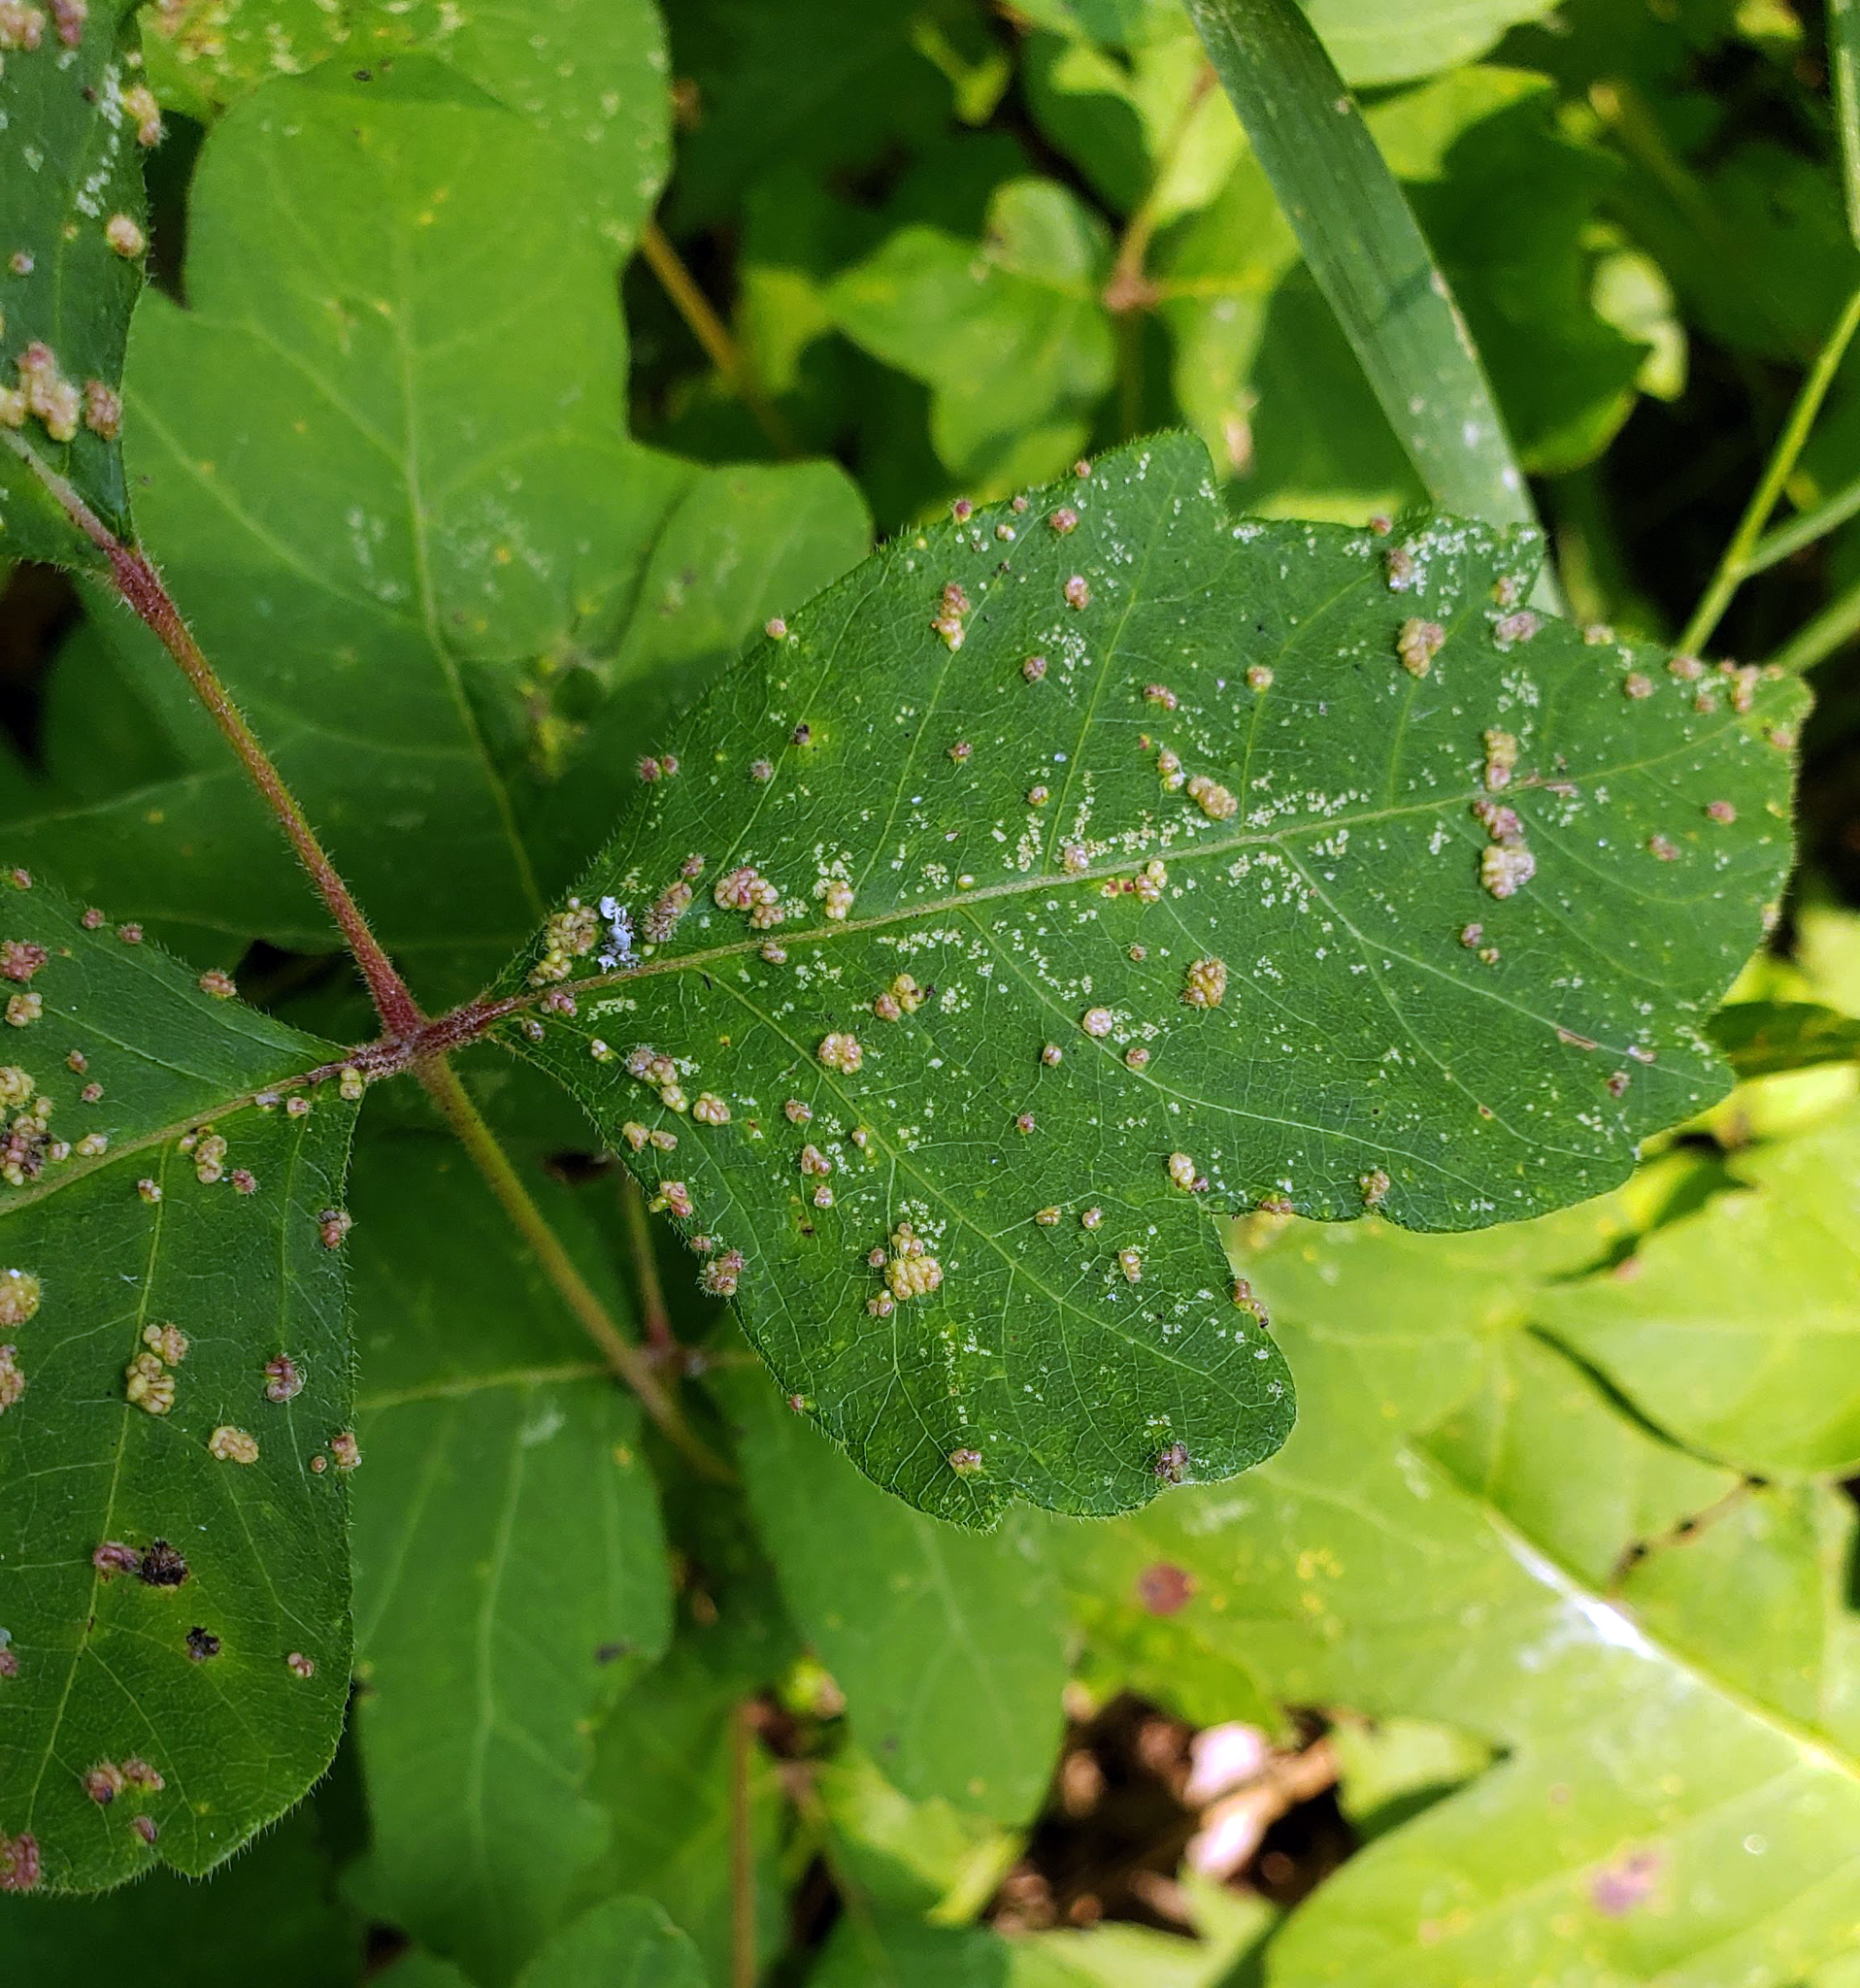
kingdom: Animalia
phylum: Arthropoda
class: Arachnida
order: Trombidiformes
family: Eriophyidae
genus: Aculops
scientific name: Aculops
